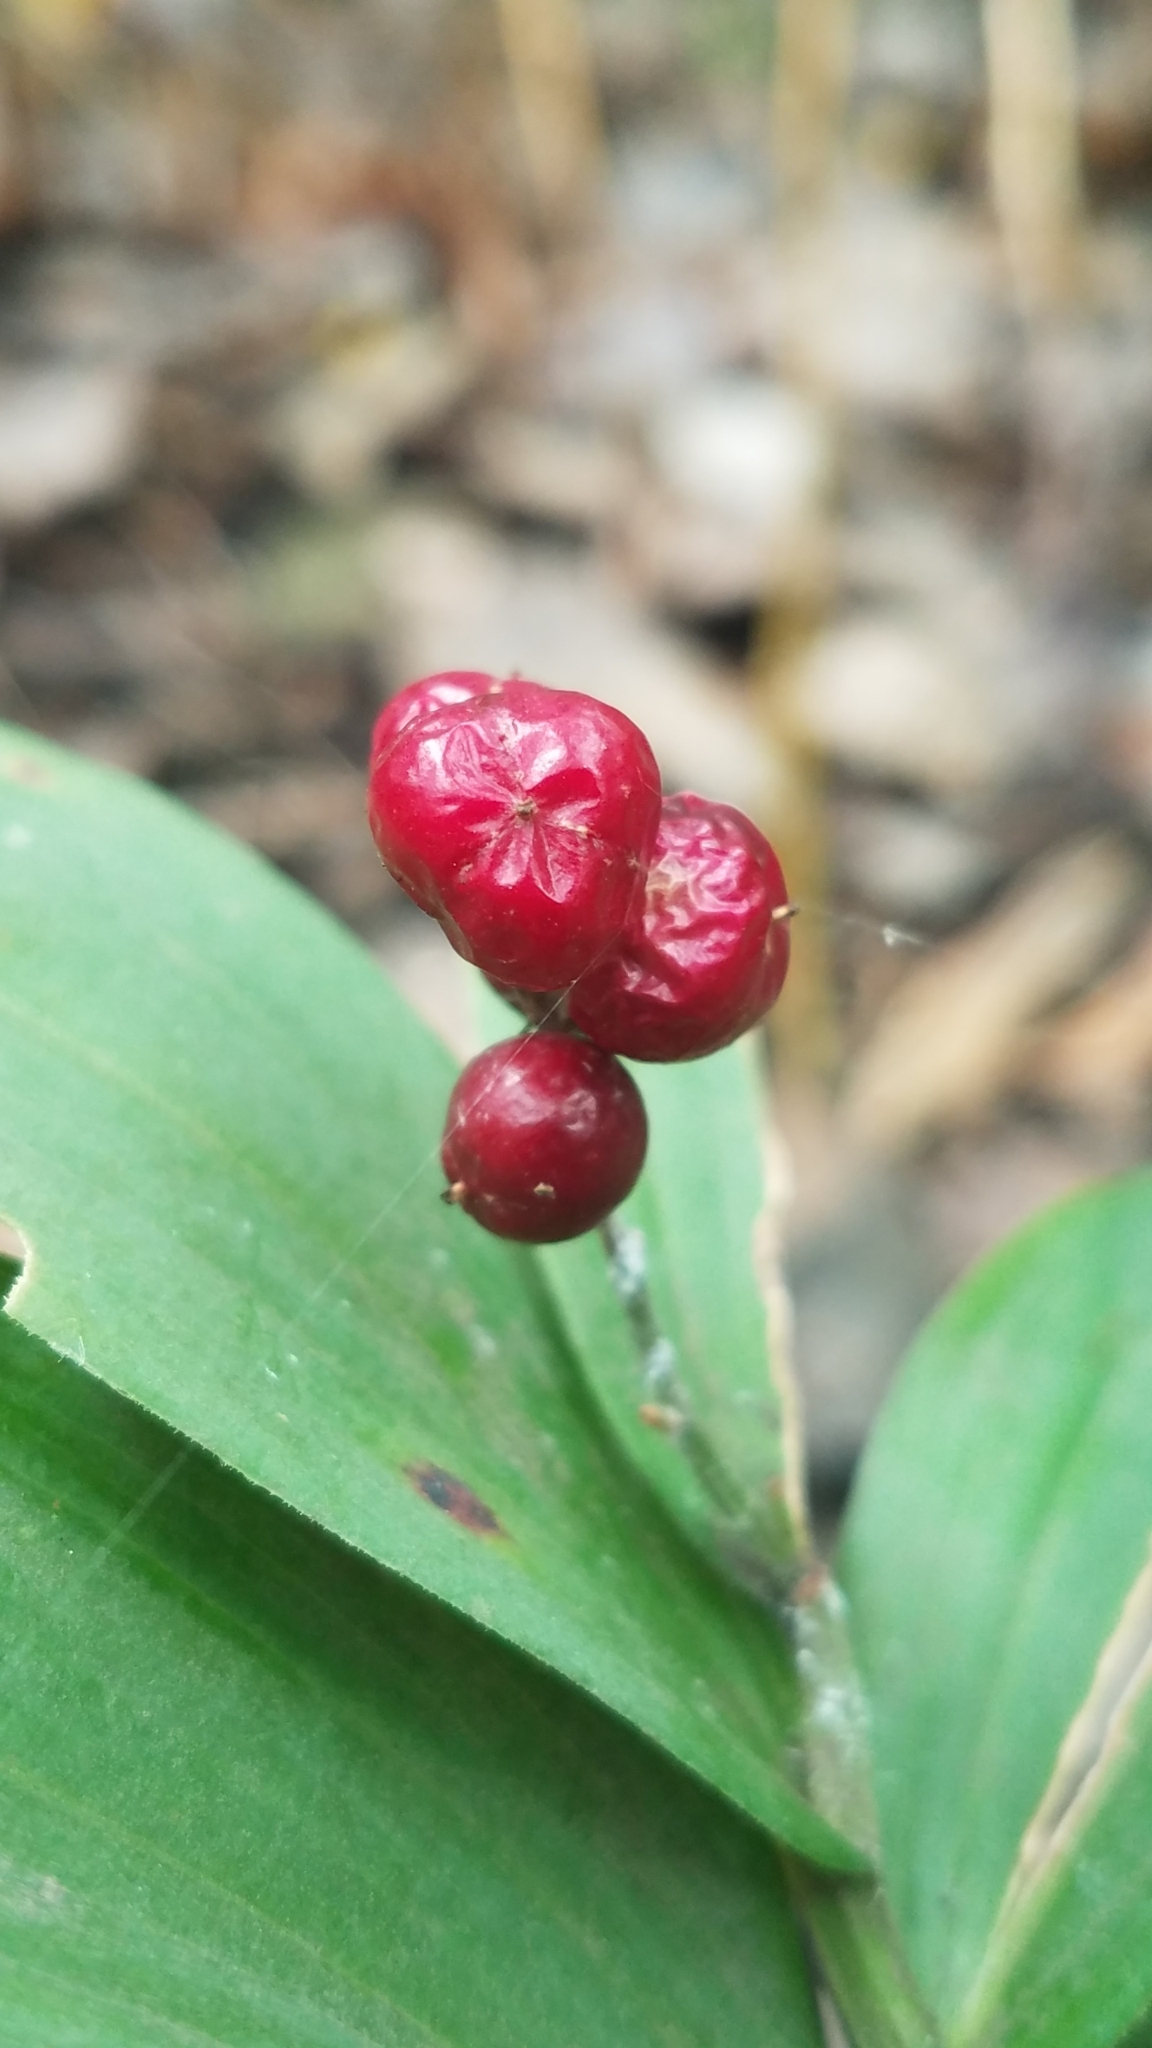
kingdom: Plantae
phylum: Tracheophyta
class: Liliopsida
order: Asparagales
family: Asparagaceae
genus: Maianthemum
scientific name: Maianthemum stellatum
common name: Little false solomon's seal
